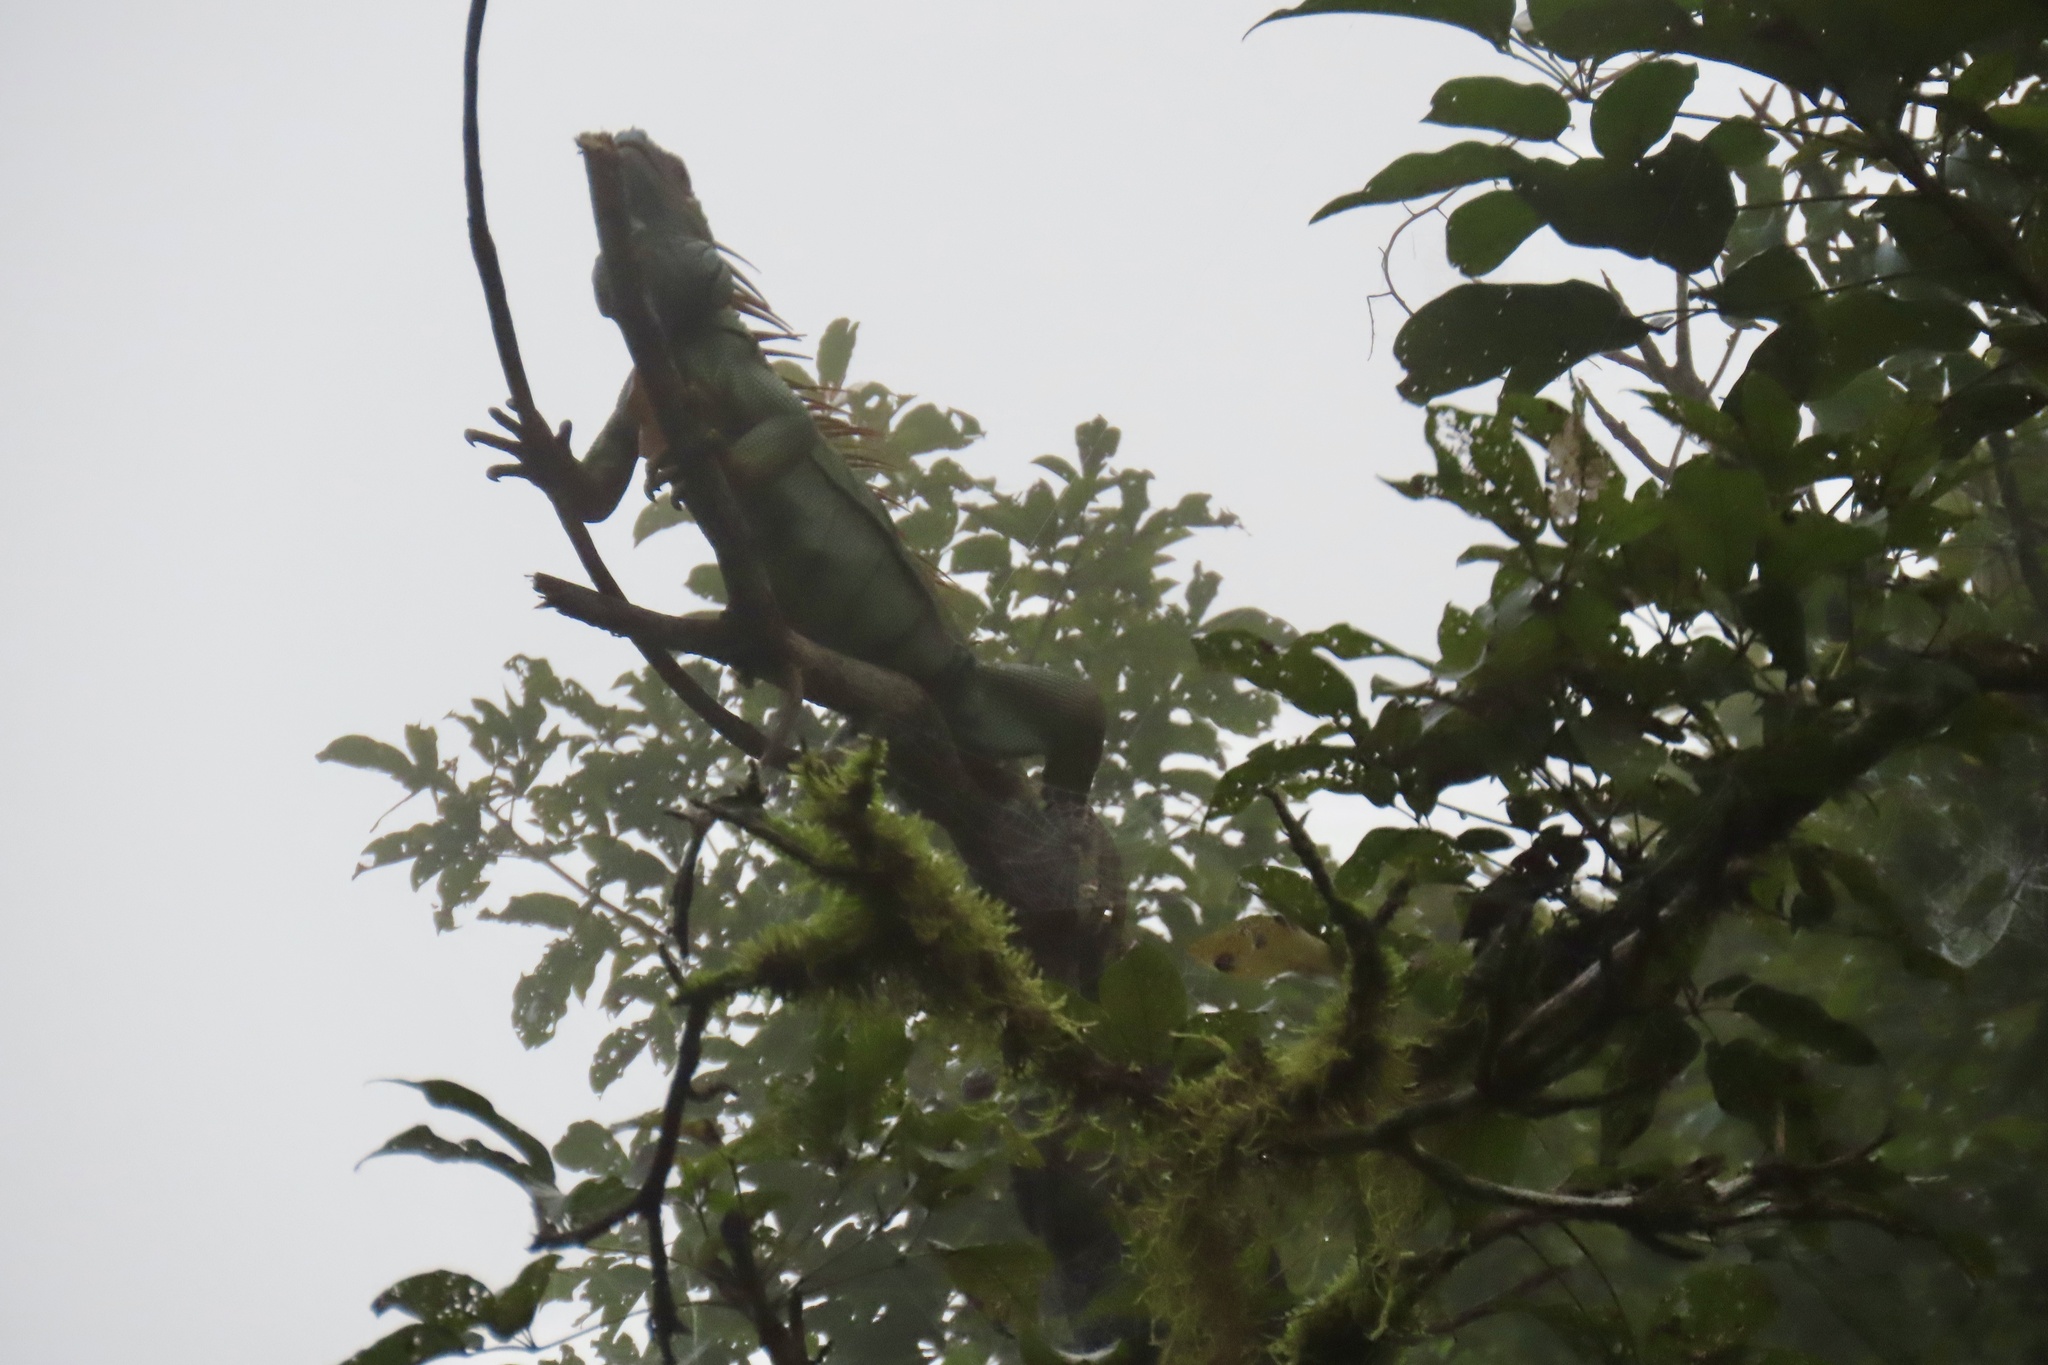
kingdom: Animalia
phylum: Chordata
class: Squamata
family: Iguanidae
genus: Iguana
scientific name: Iguana iguana
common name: Green iguana
